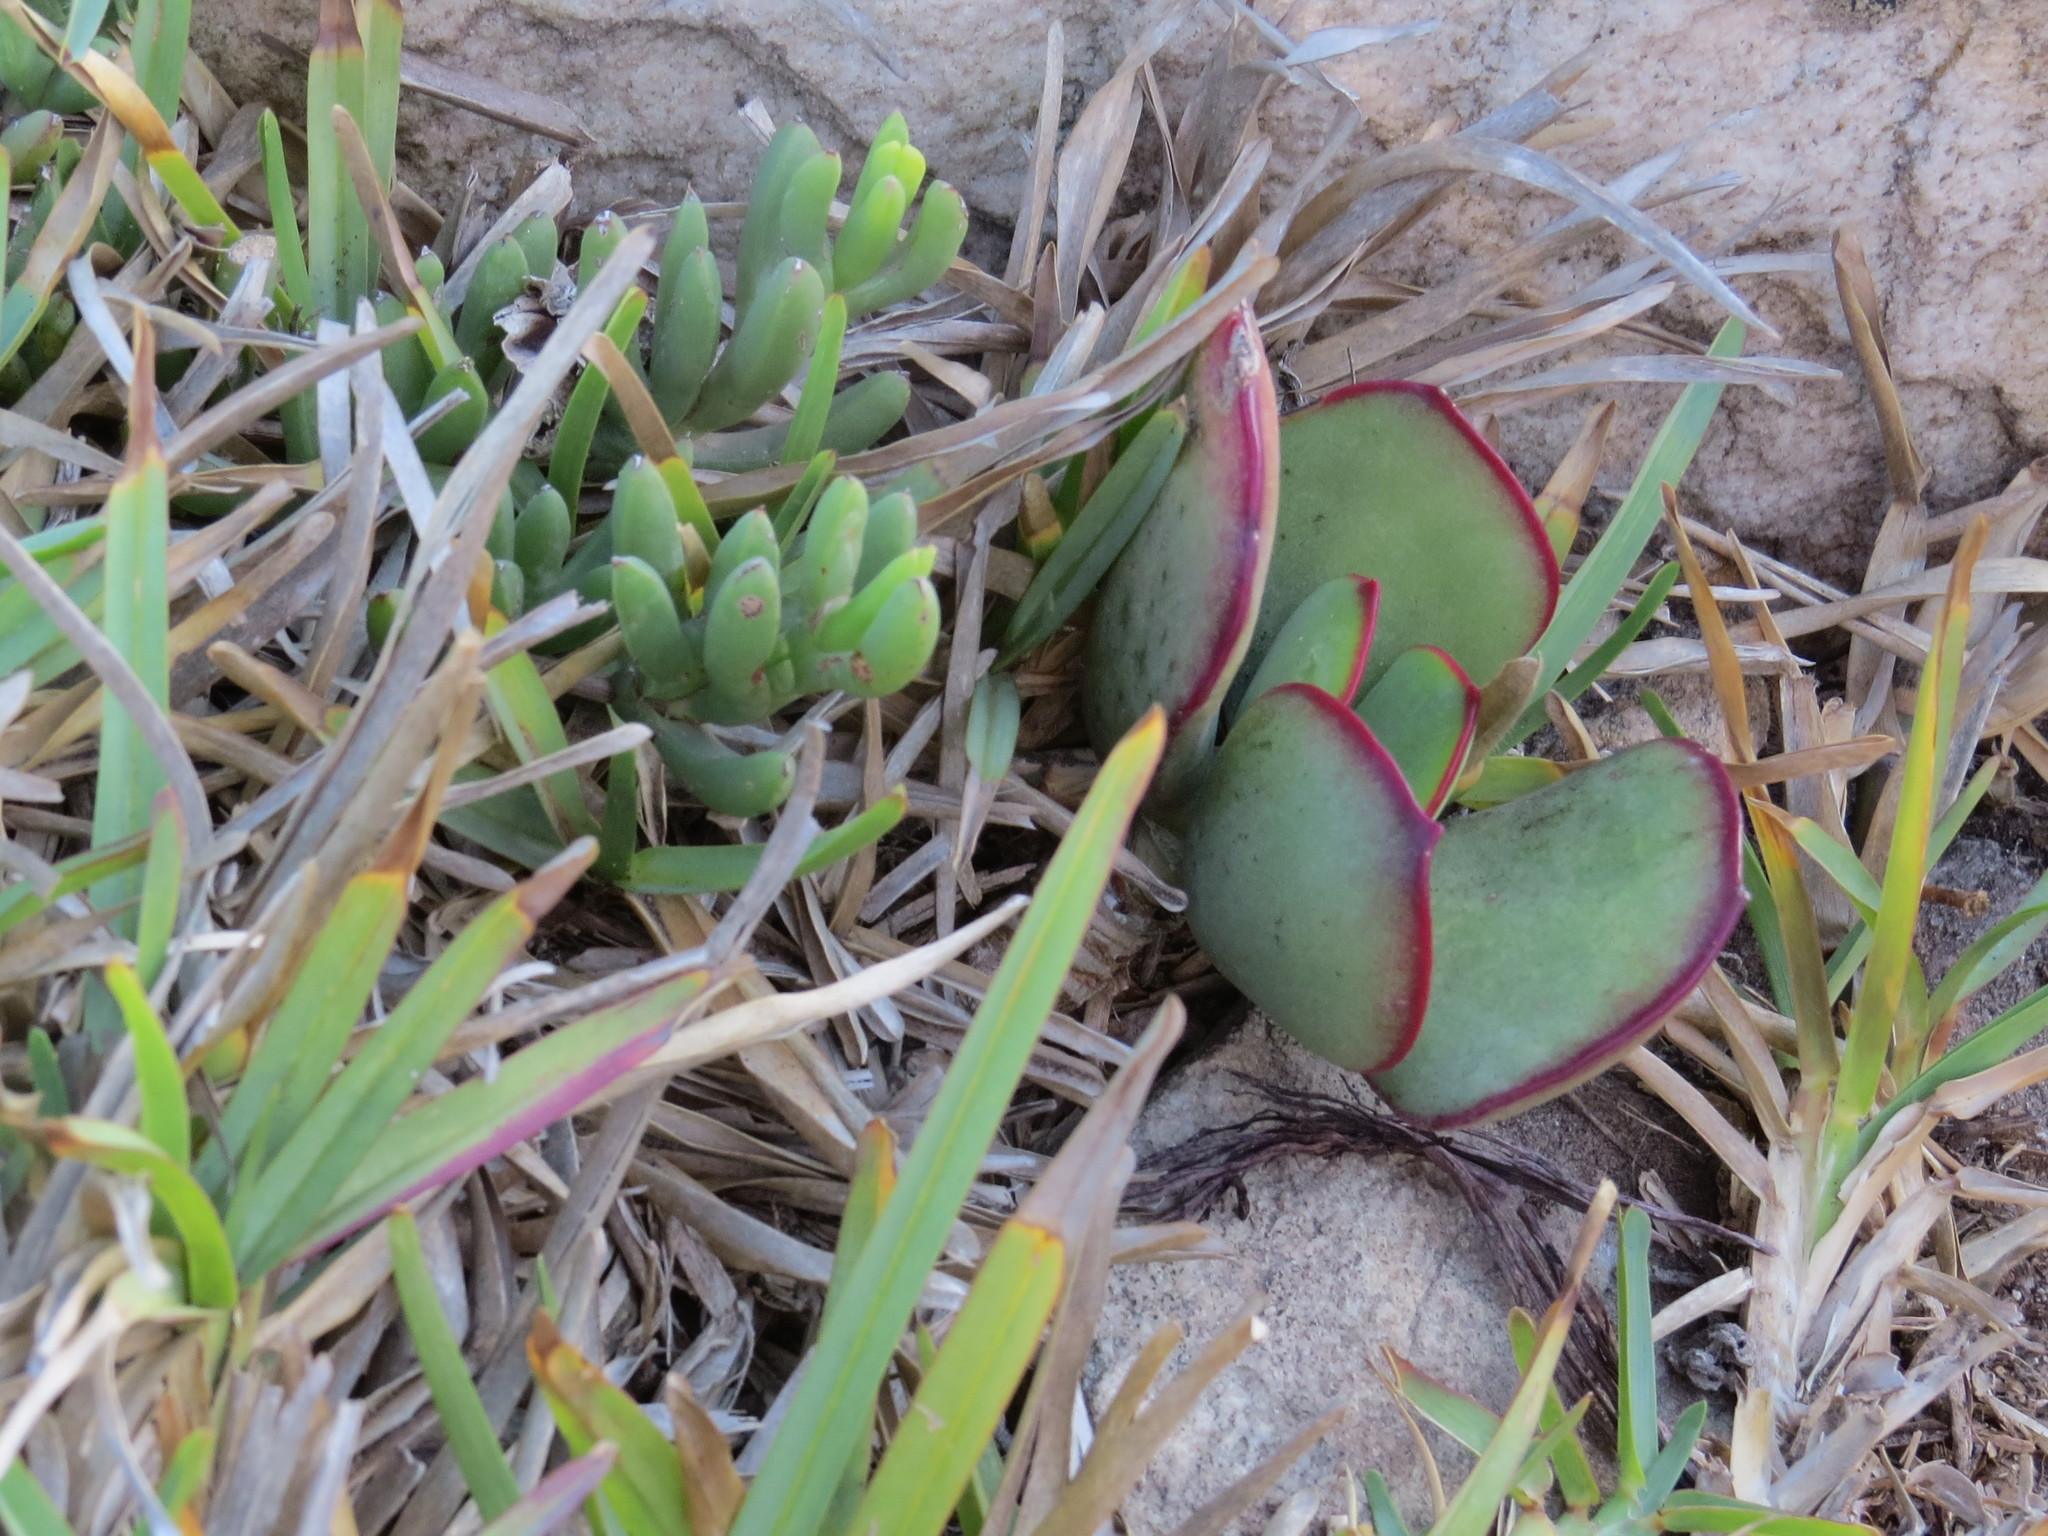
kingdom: Plantae
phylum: Tracheophyta
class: Magnoliopsida
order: Saxifragales
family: Crassulaceae
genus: Cotyledon
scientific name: Cotyledon orbiculata
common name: Pig's ear
